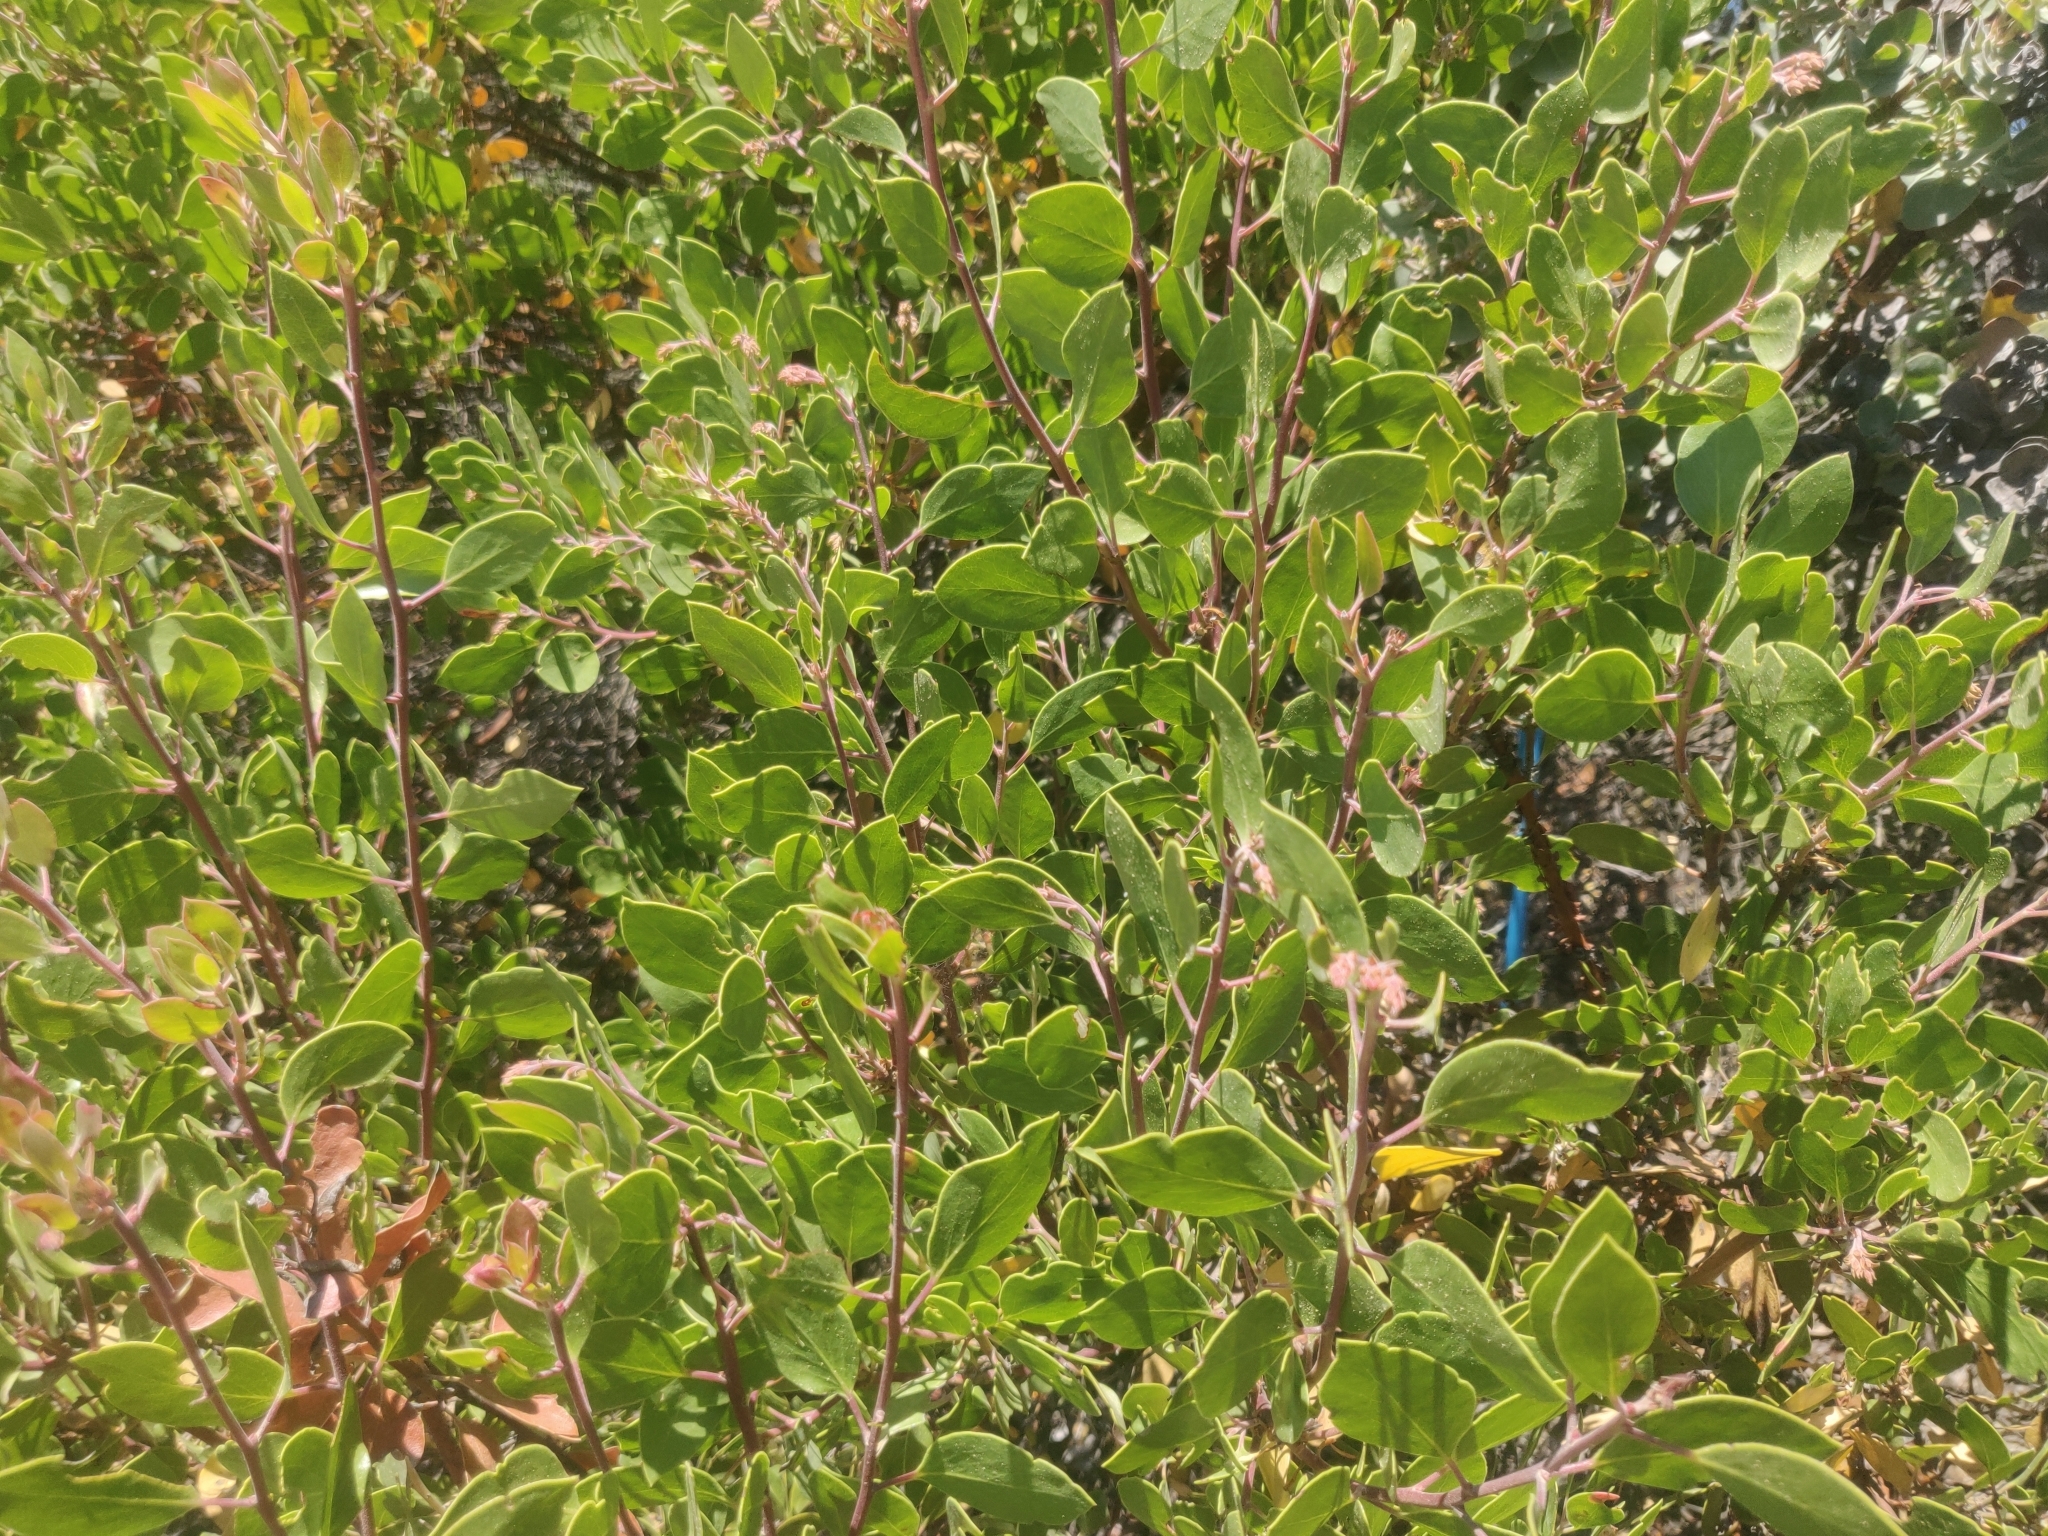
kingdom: Plantae
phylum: Tracheophyta
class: Magnoliopsida
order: Ericales
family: Ericaceae
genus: Arctostaphylos
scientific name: Arctostaphylos manzanita
